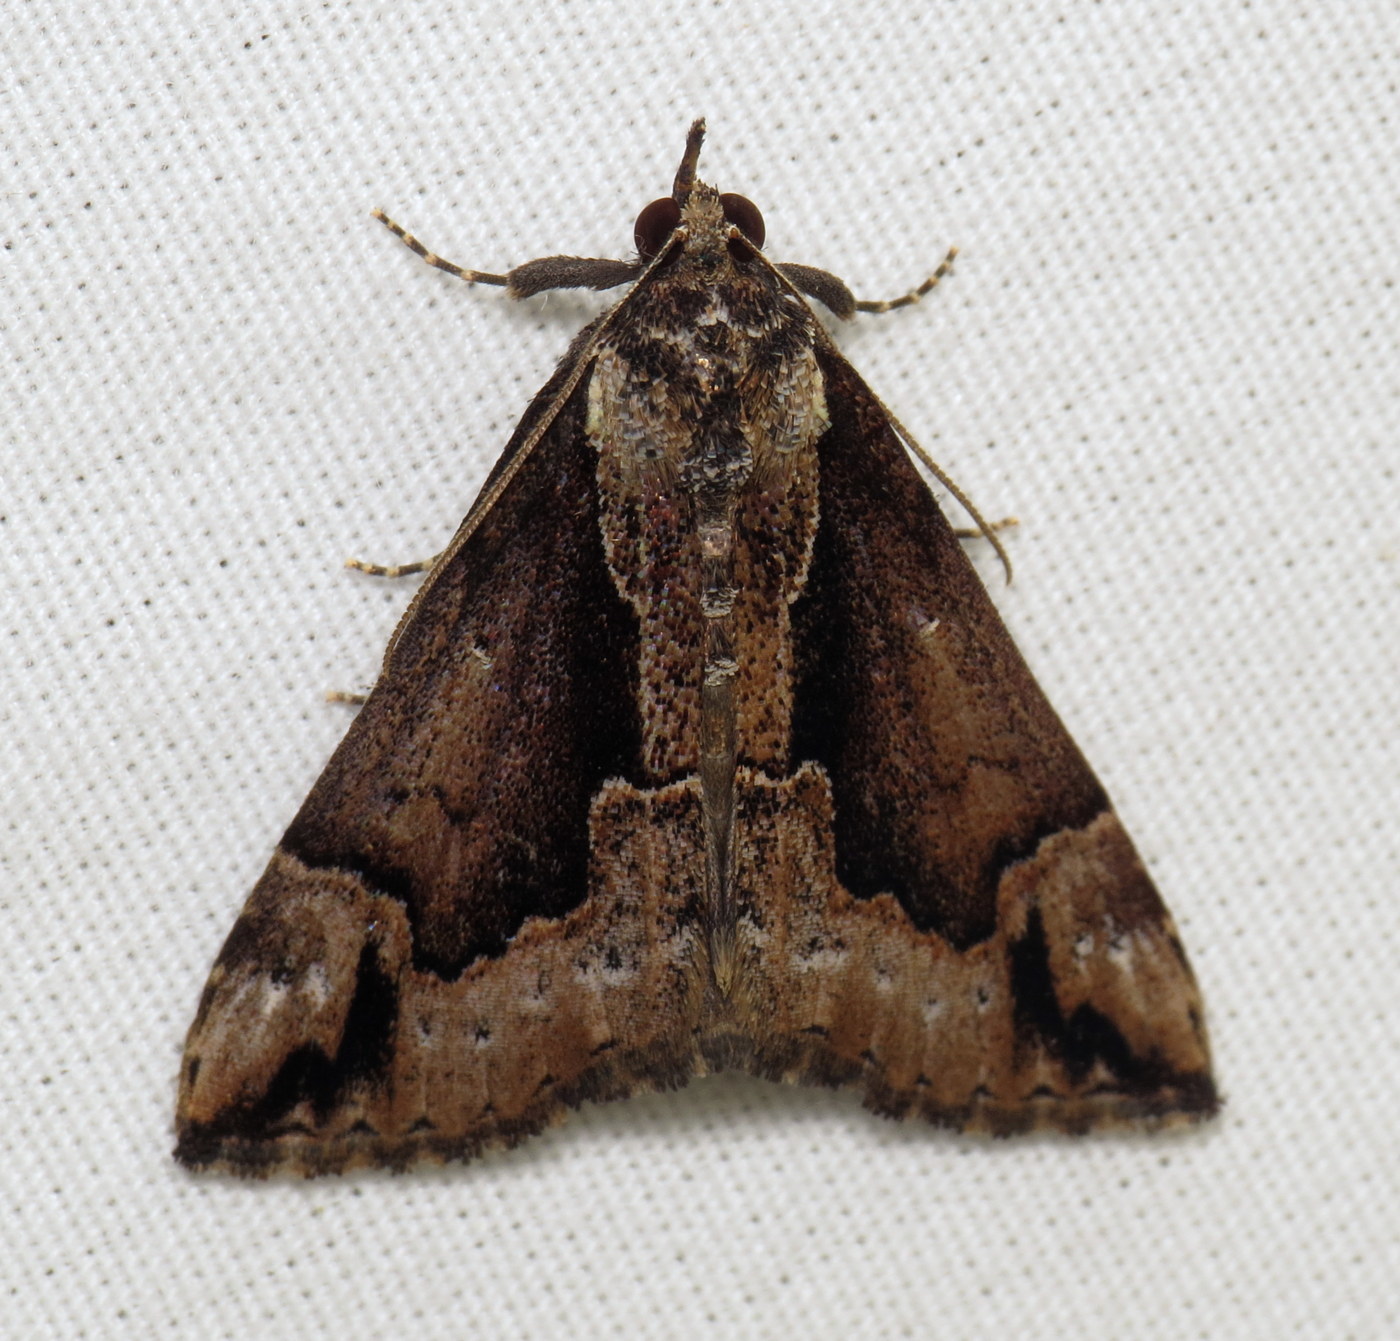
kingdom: Animalia
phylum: Arthropoda
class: Insecta
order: Lepidoptera
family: Erebidae
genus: Hypena
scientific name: Hypena baltimoralis
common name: Baltimore snout
